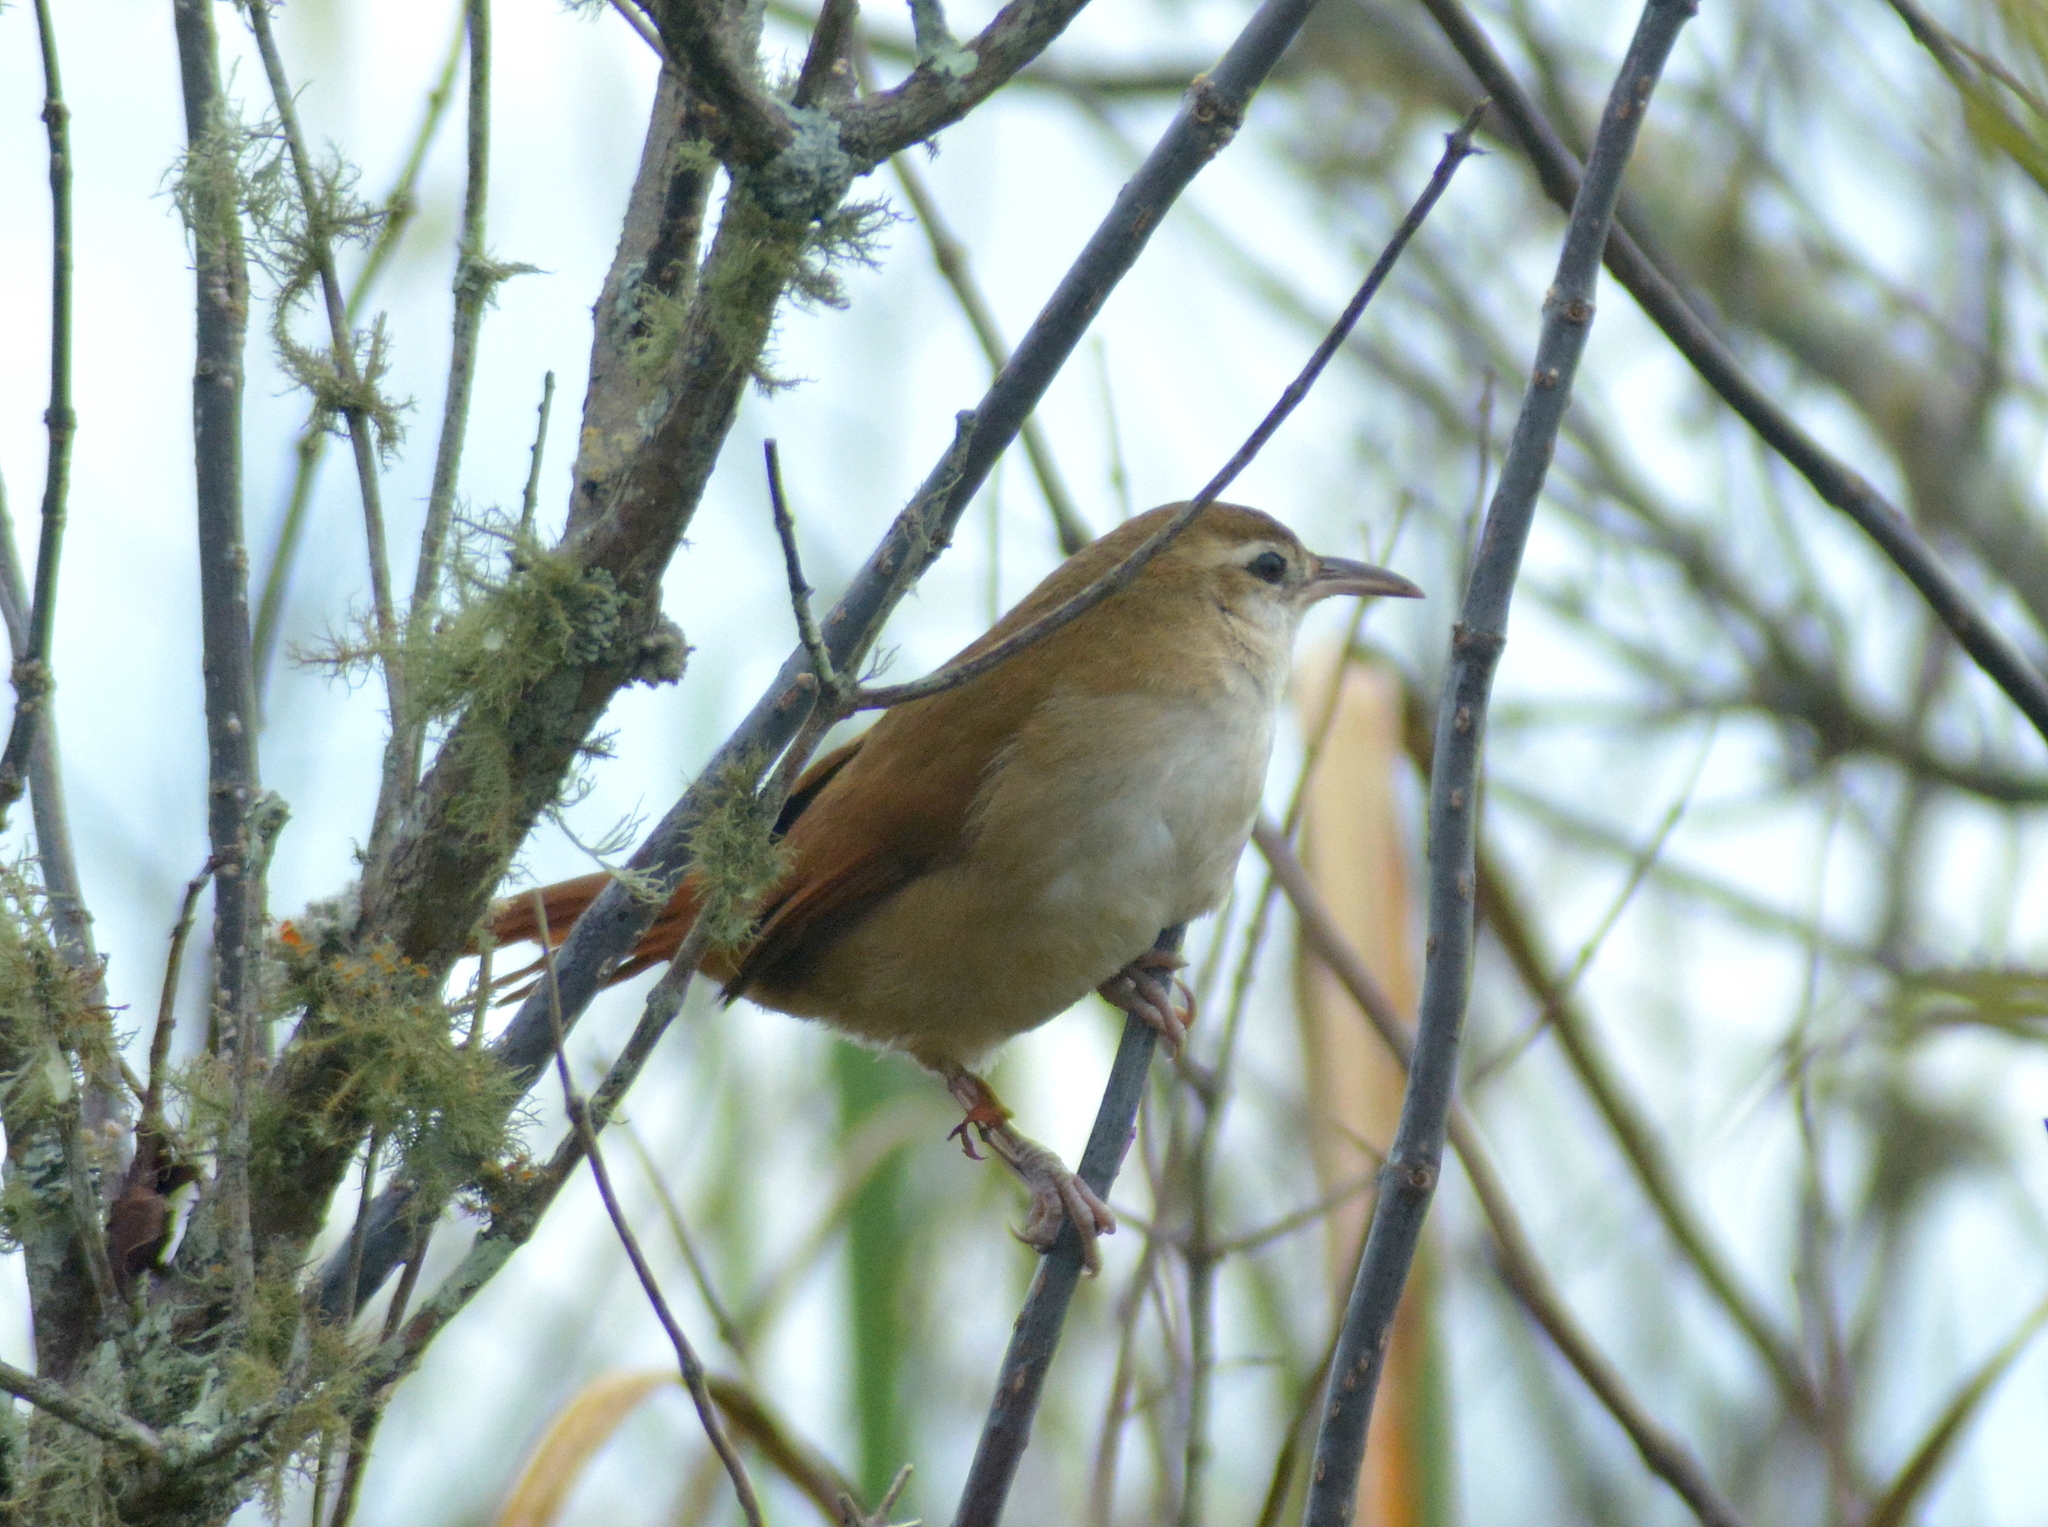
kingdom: Animalia
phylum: Chordata
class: Aves
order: Passeriformes
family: Furnariidae
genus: Limnornis
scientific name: Limnornis curvirostris
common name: Curve-billed reedhaunter
